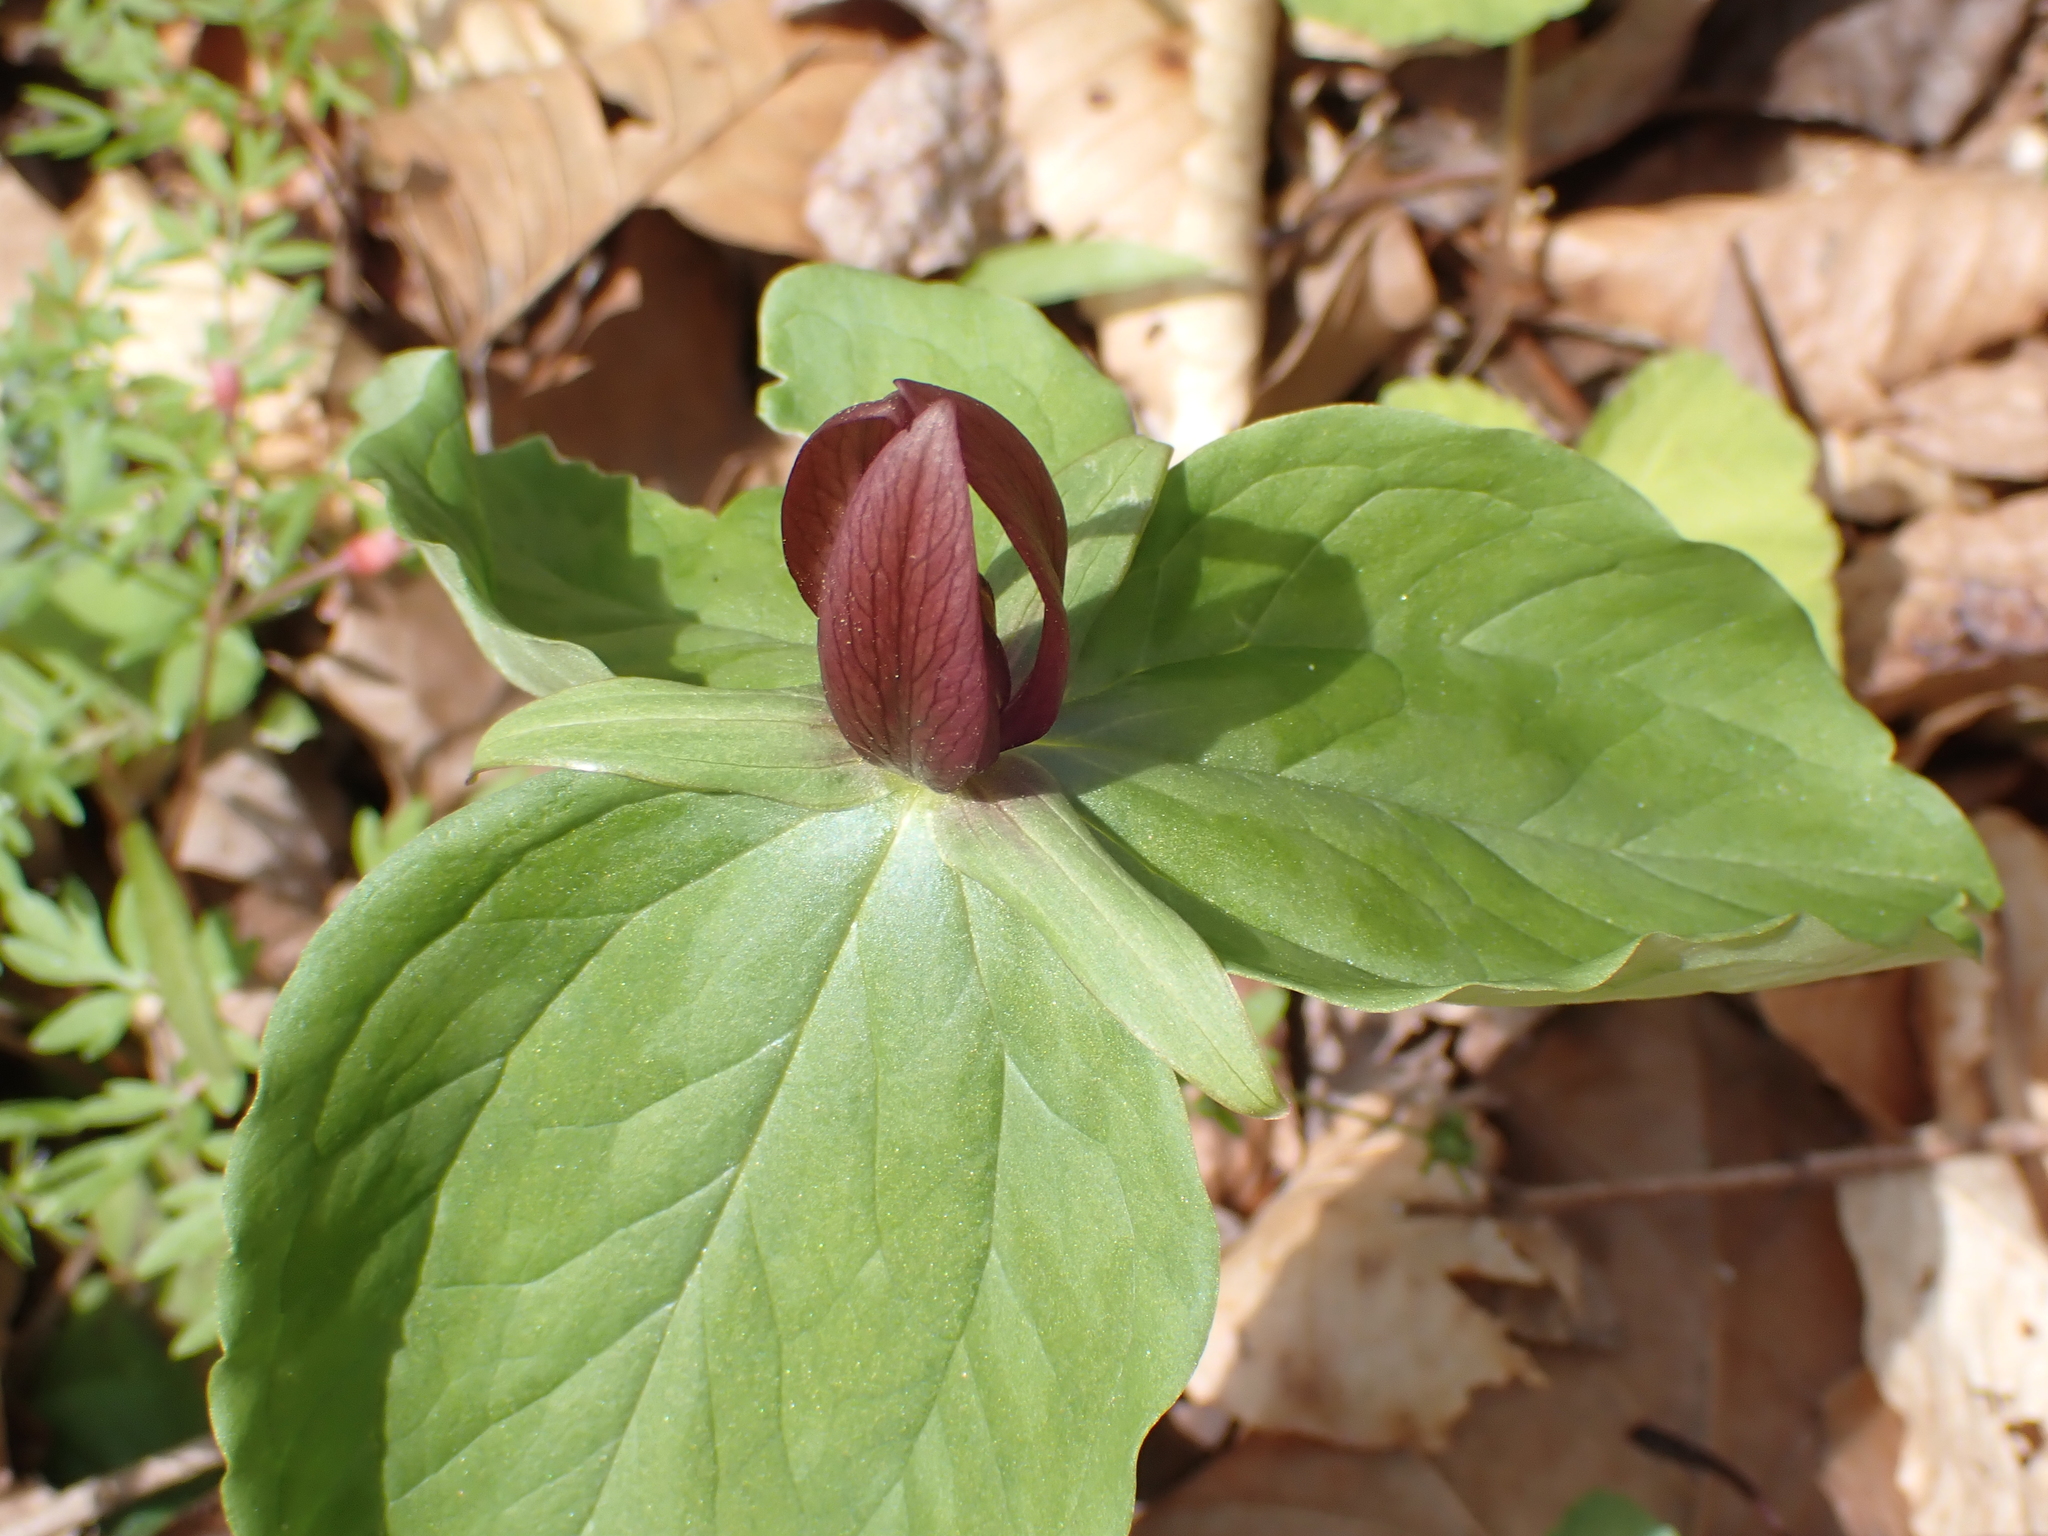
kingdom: Plantae
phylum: Tracheophyta
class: Liliopsida
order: Liliales
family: Melanthiaceae
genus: Trillium
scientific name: Trillium sessile
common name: Sessile trillium
